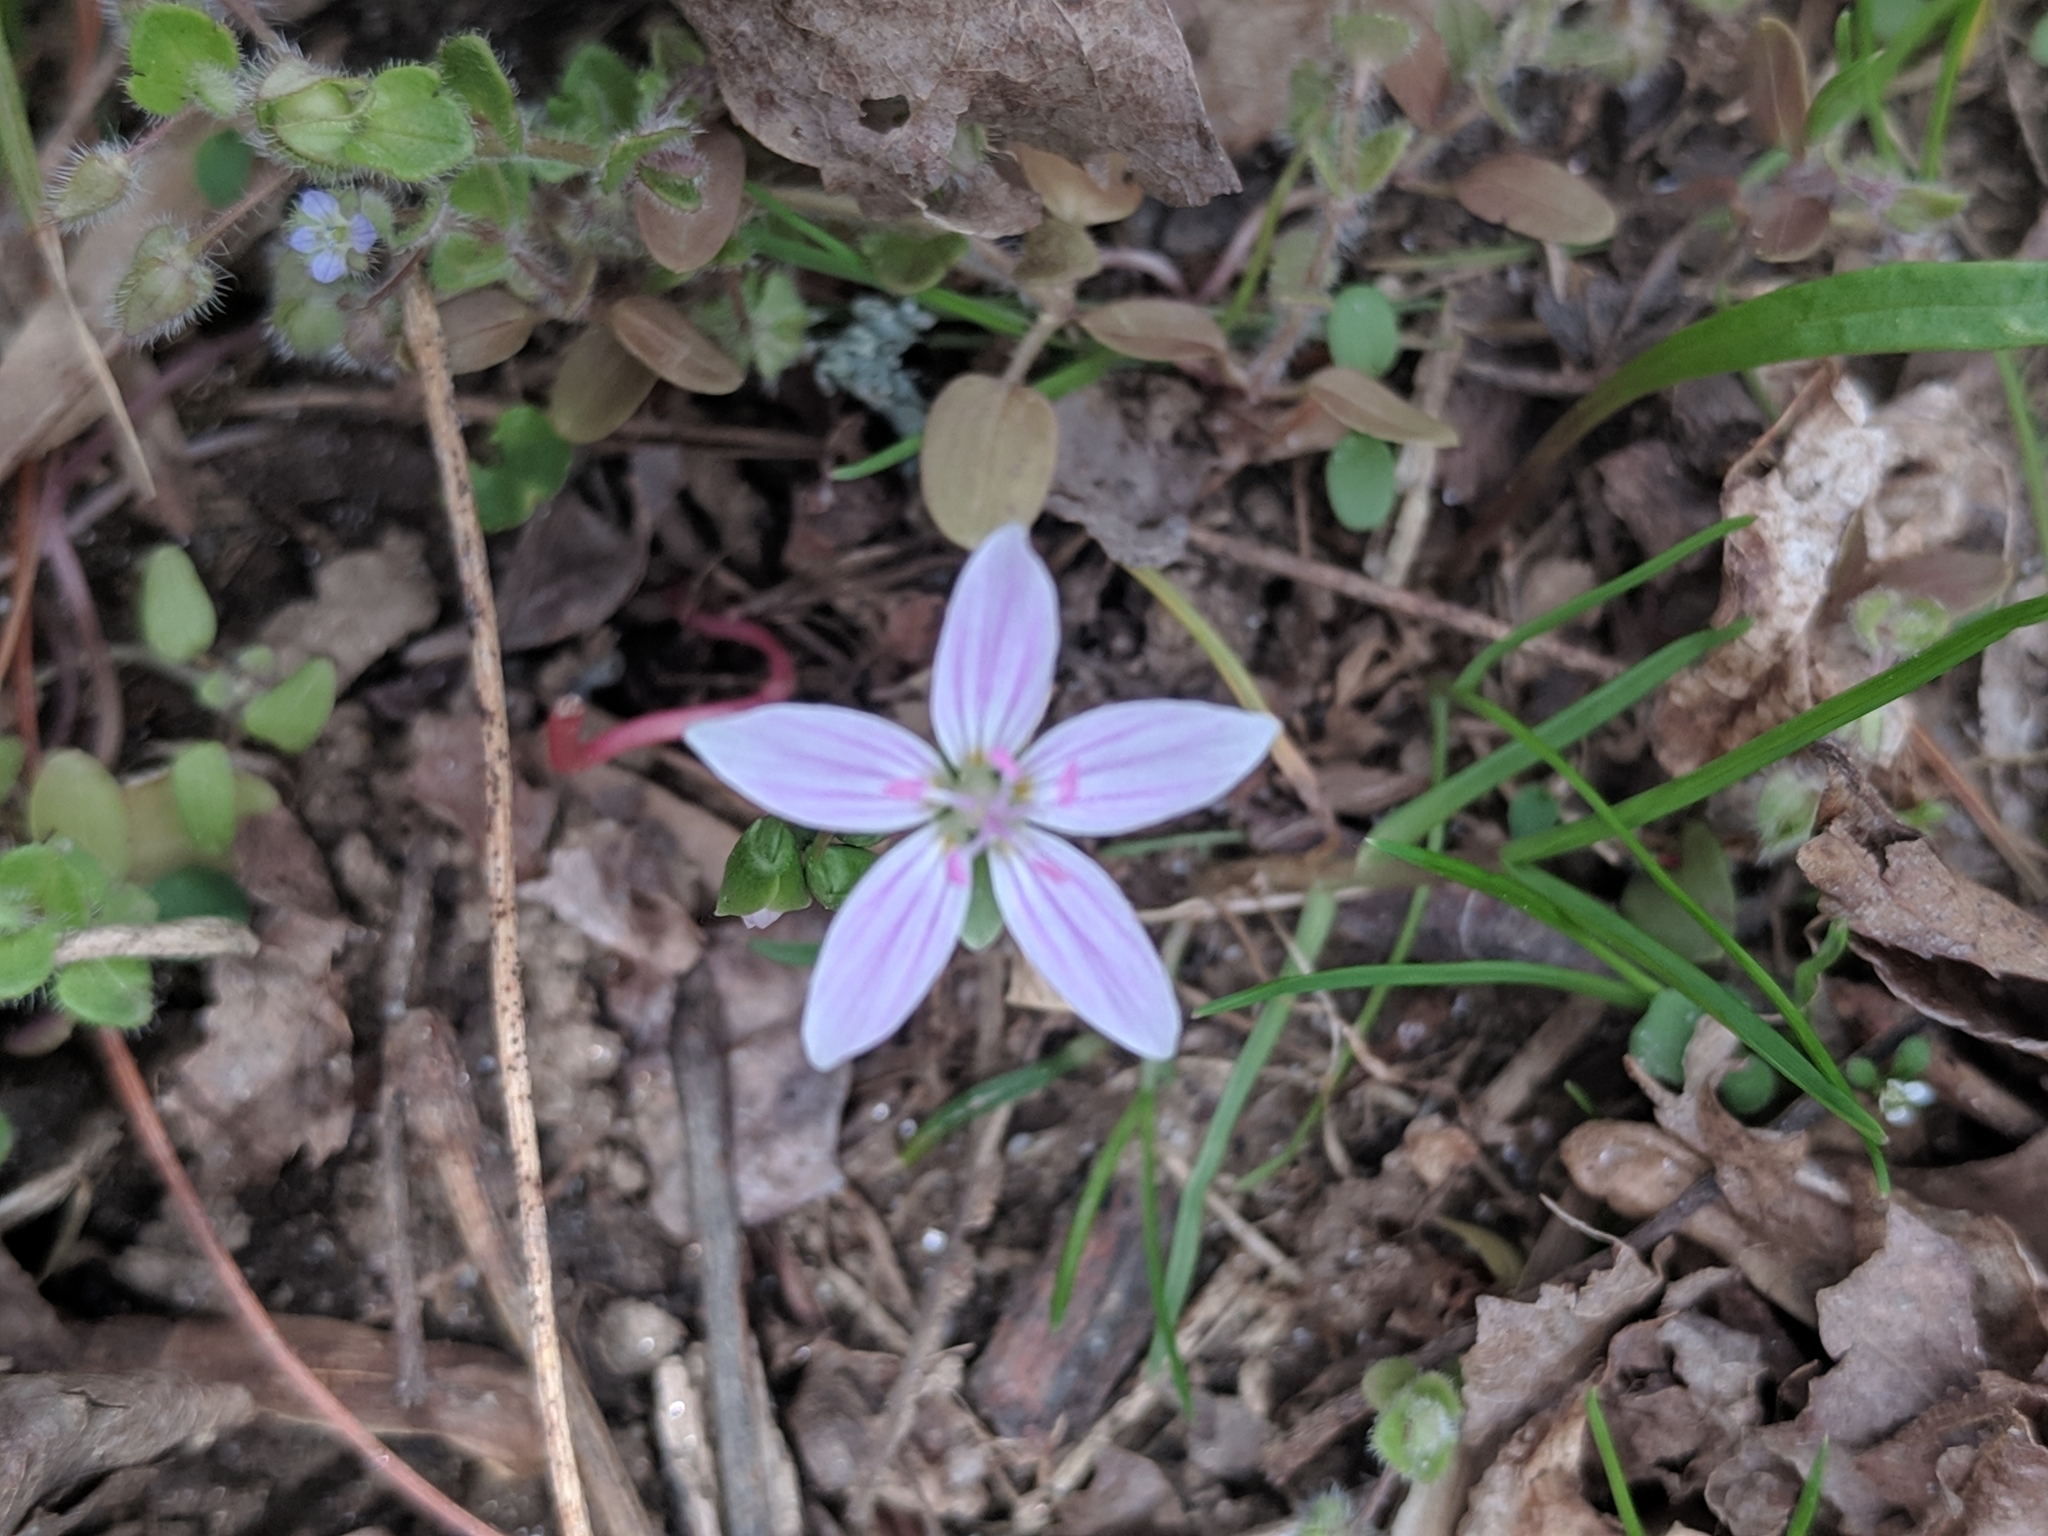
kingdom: Plantae
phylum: Tracheophyta
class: Magnoliopsida
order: Caryophyllales
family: Montiaceae
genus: Claytonia
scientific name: Claytonia virginica
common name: Virginia springbeauty
